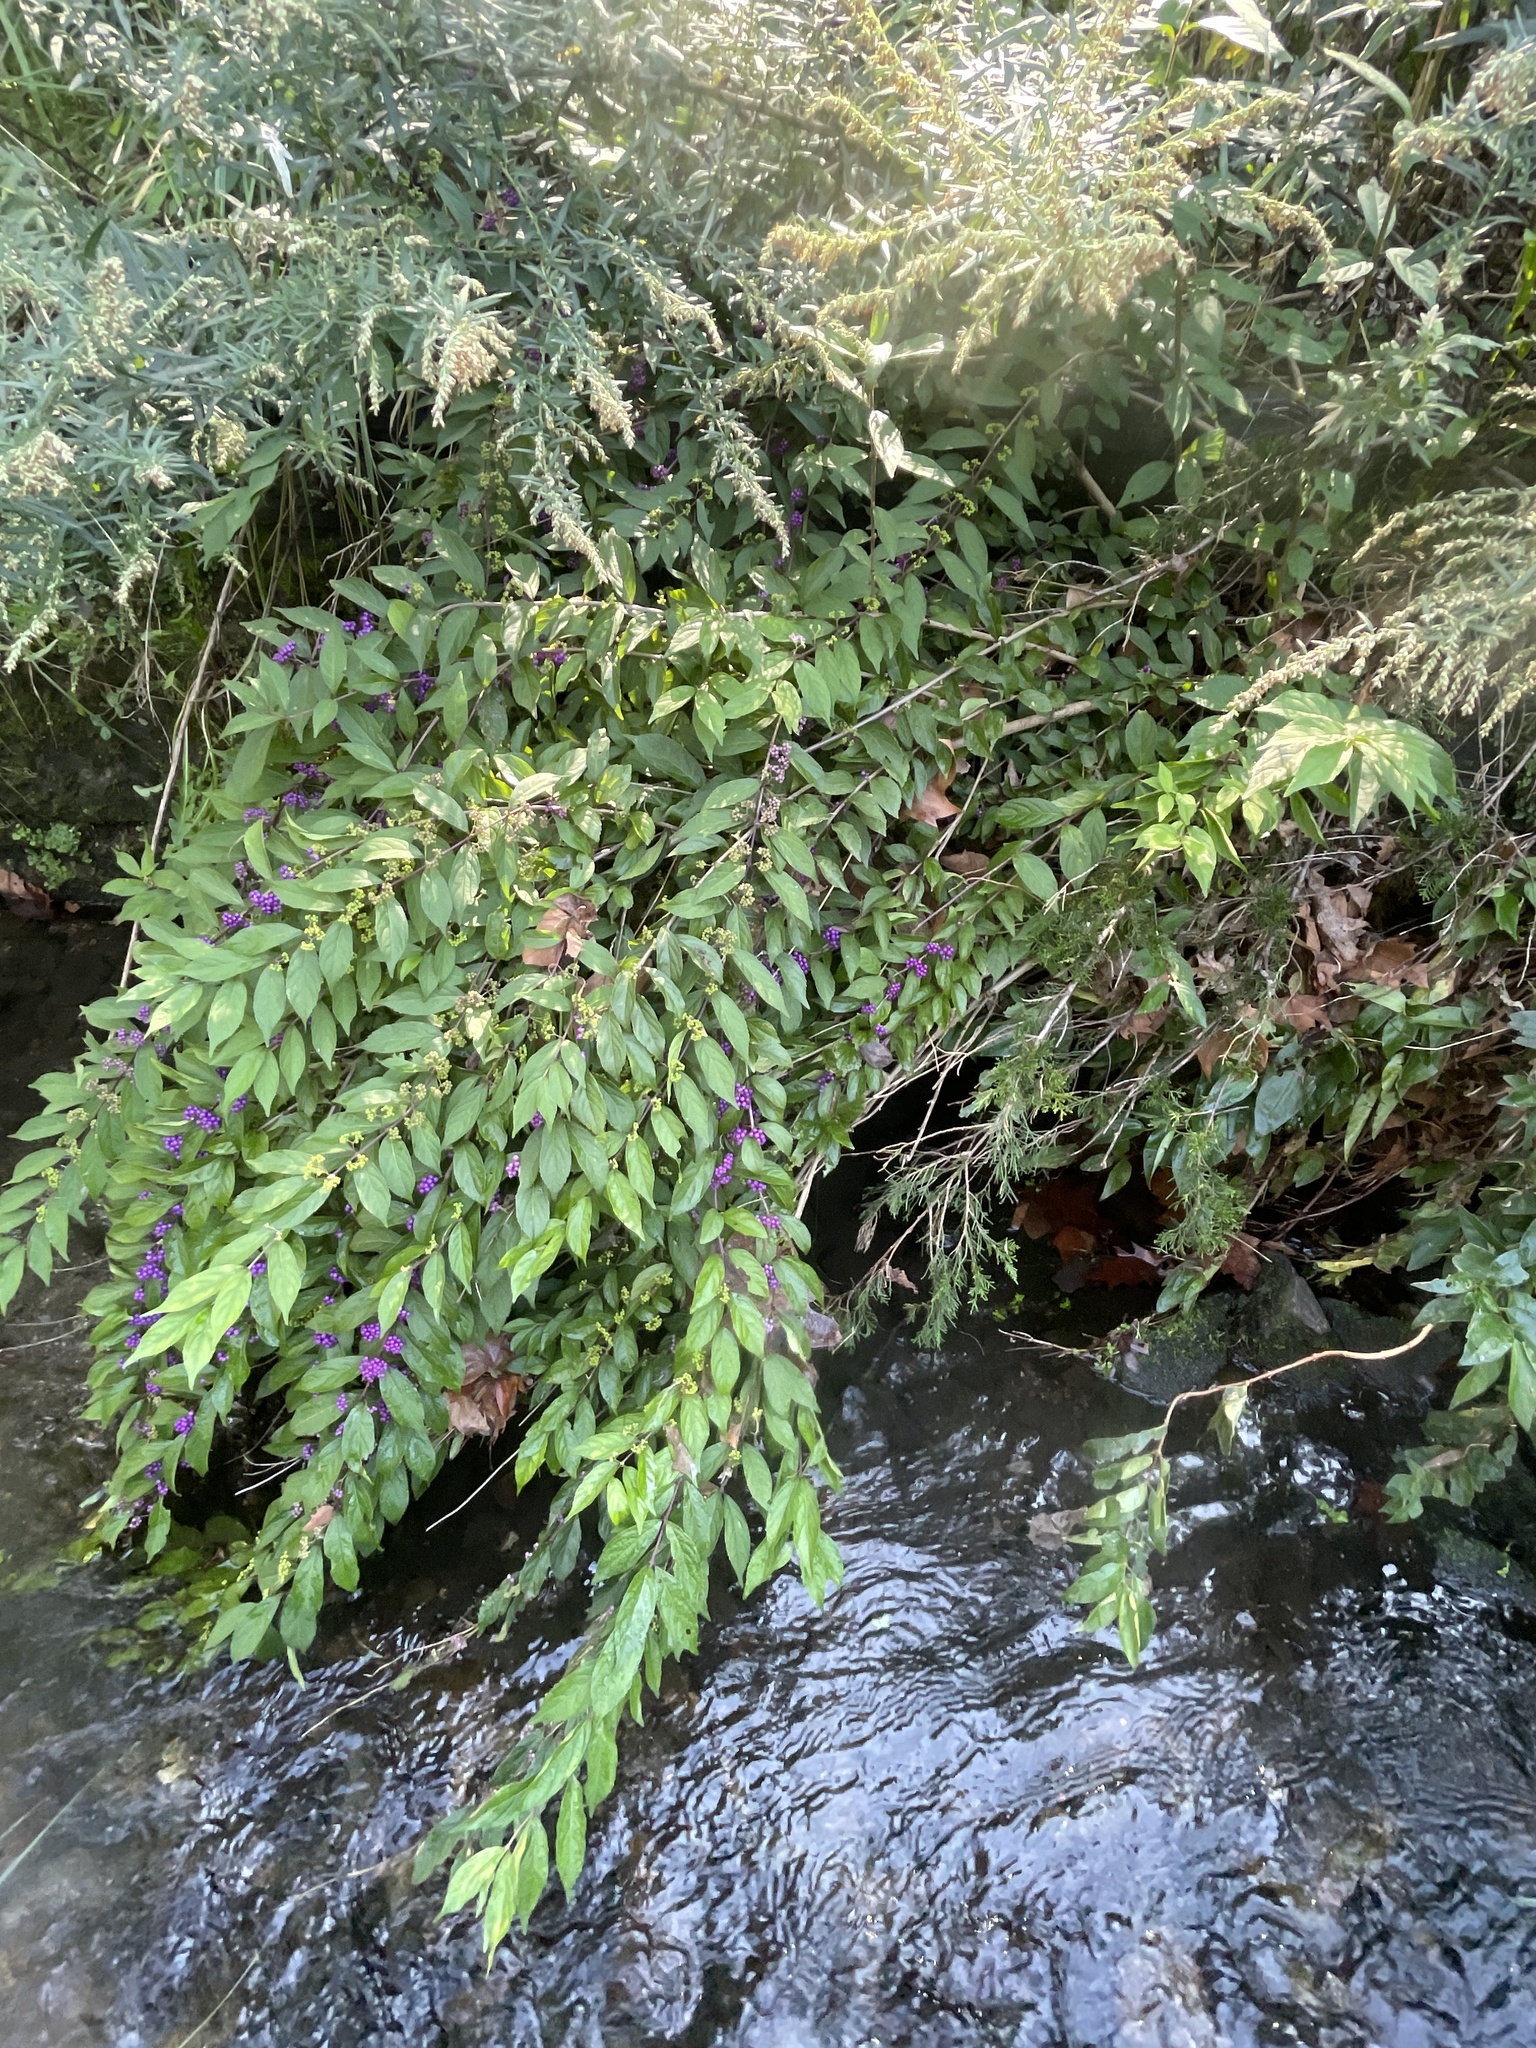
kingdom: Plantae
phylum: Tracheophyta
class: Magnoliopsida
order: Lamiales
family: Lamiaceae
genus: Callicarpa
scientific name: Callicarpa dichotoma
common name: Purple beauty-berry
